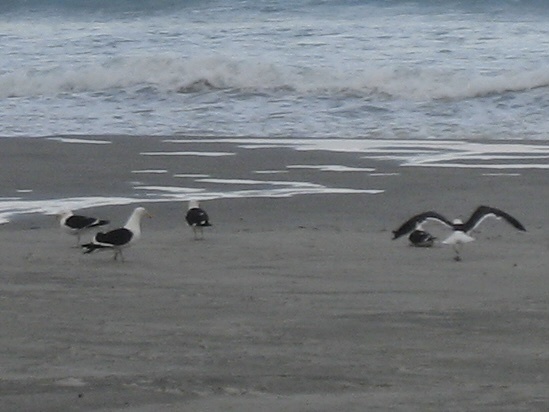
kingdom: Animalia
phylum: Chordata
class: Aves
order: Charadriiformes
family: Laridae
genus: Larus
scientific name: Larus dominicanus
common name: Kelp gull
